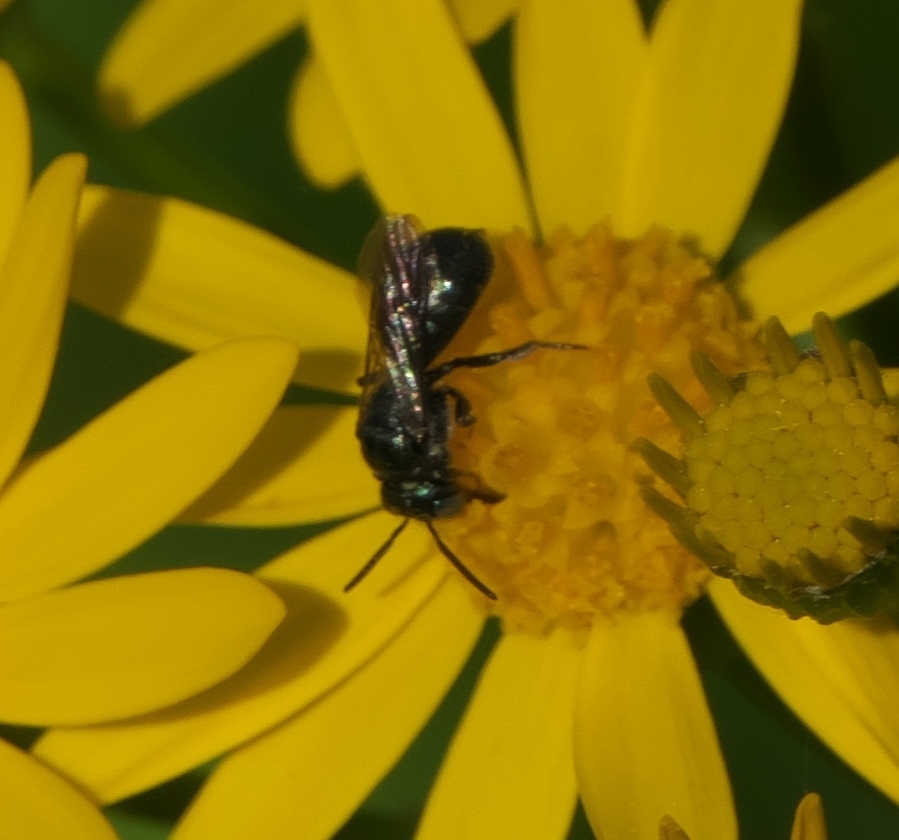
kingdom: Animalia
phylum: Arthropoda
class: Insecta
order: Hymenoptera
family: Apidae
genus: Zadontomerus
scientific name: Zadontomerus
